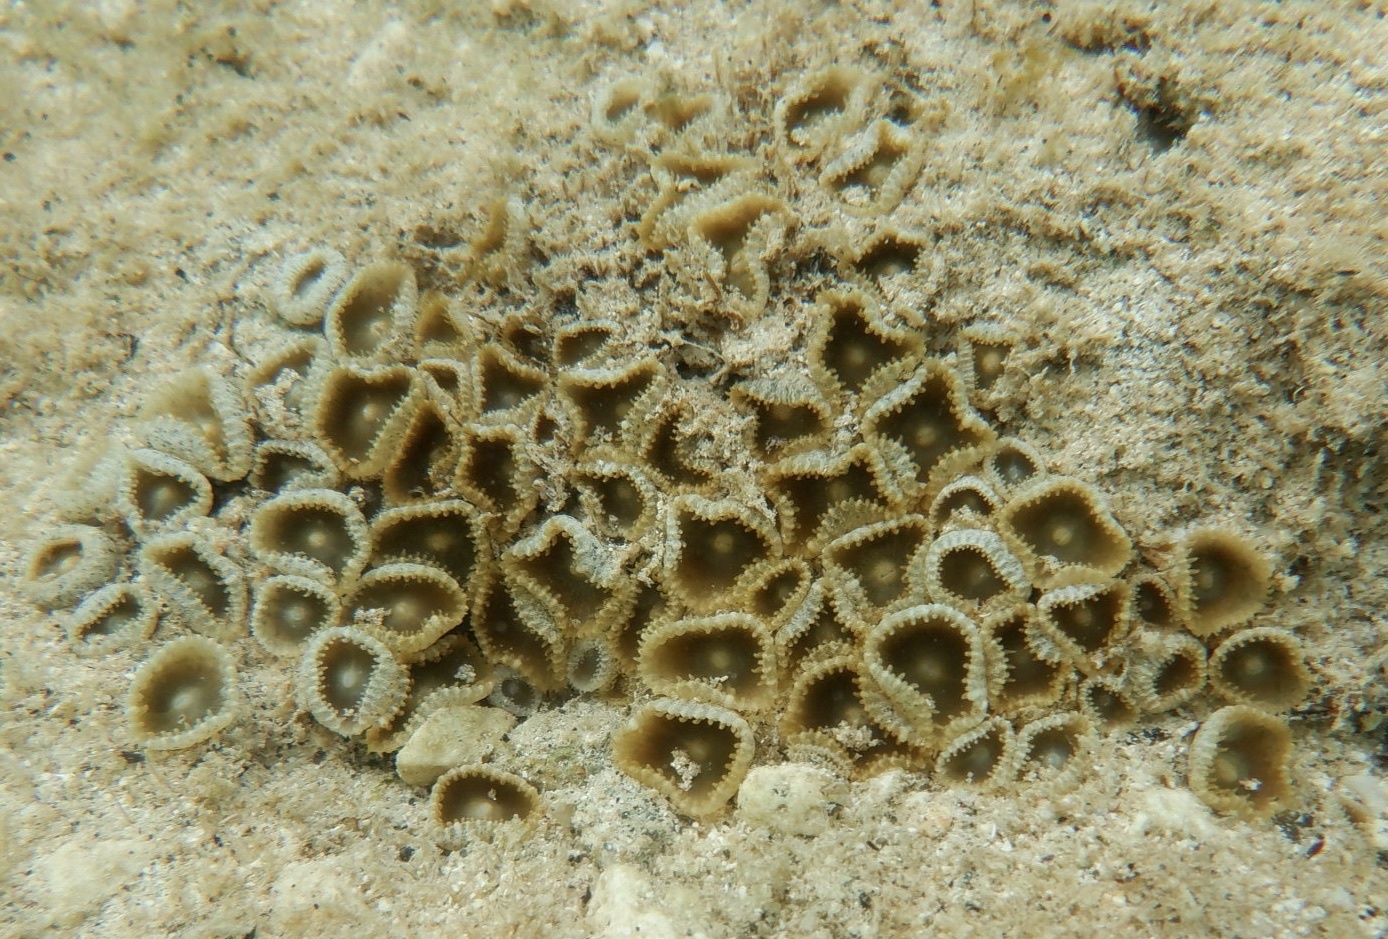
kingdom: Animalia
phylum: Cnidaria
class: Anthozoa
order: Zoantharia
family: Sphenopidae
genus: Palythoa
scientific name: Palythoa grandiflora
